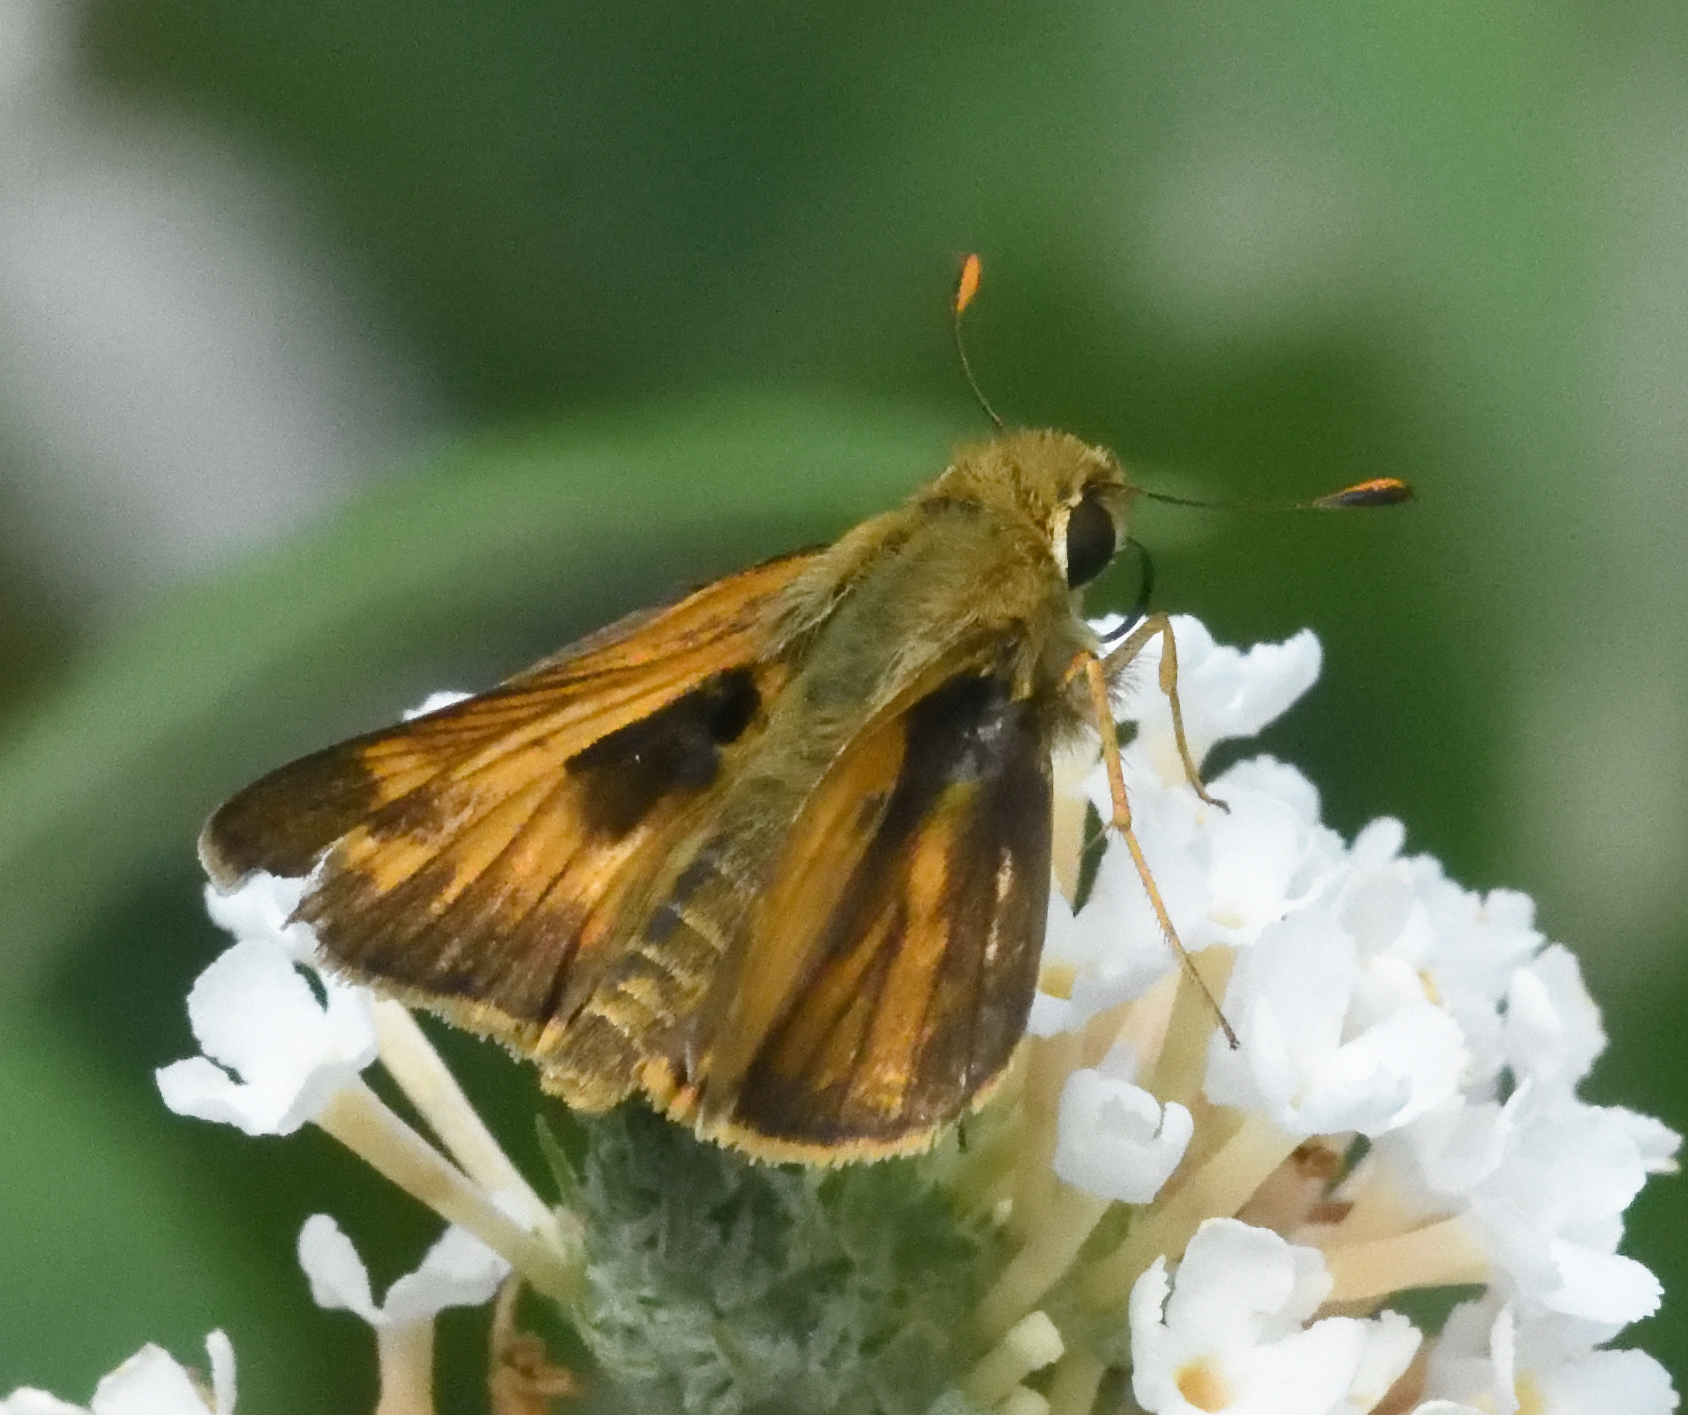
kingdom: Animalia
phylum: Arthropoda
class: Insecta
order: Lepidoptera
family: Hesperiidae
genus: Atalopedes
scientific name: Atalopedes
